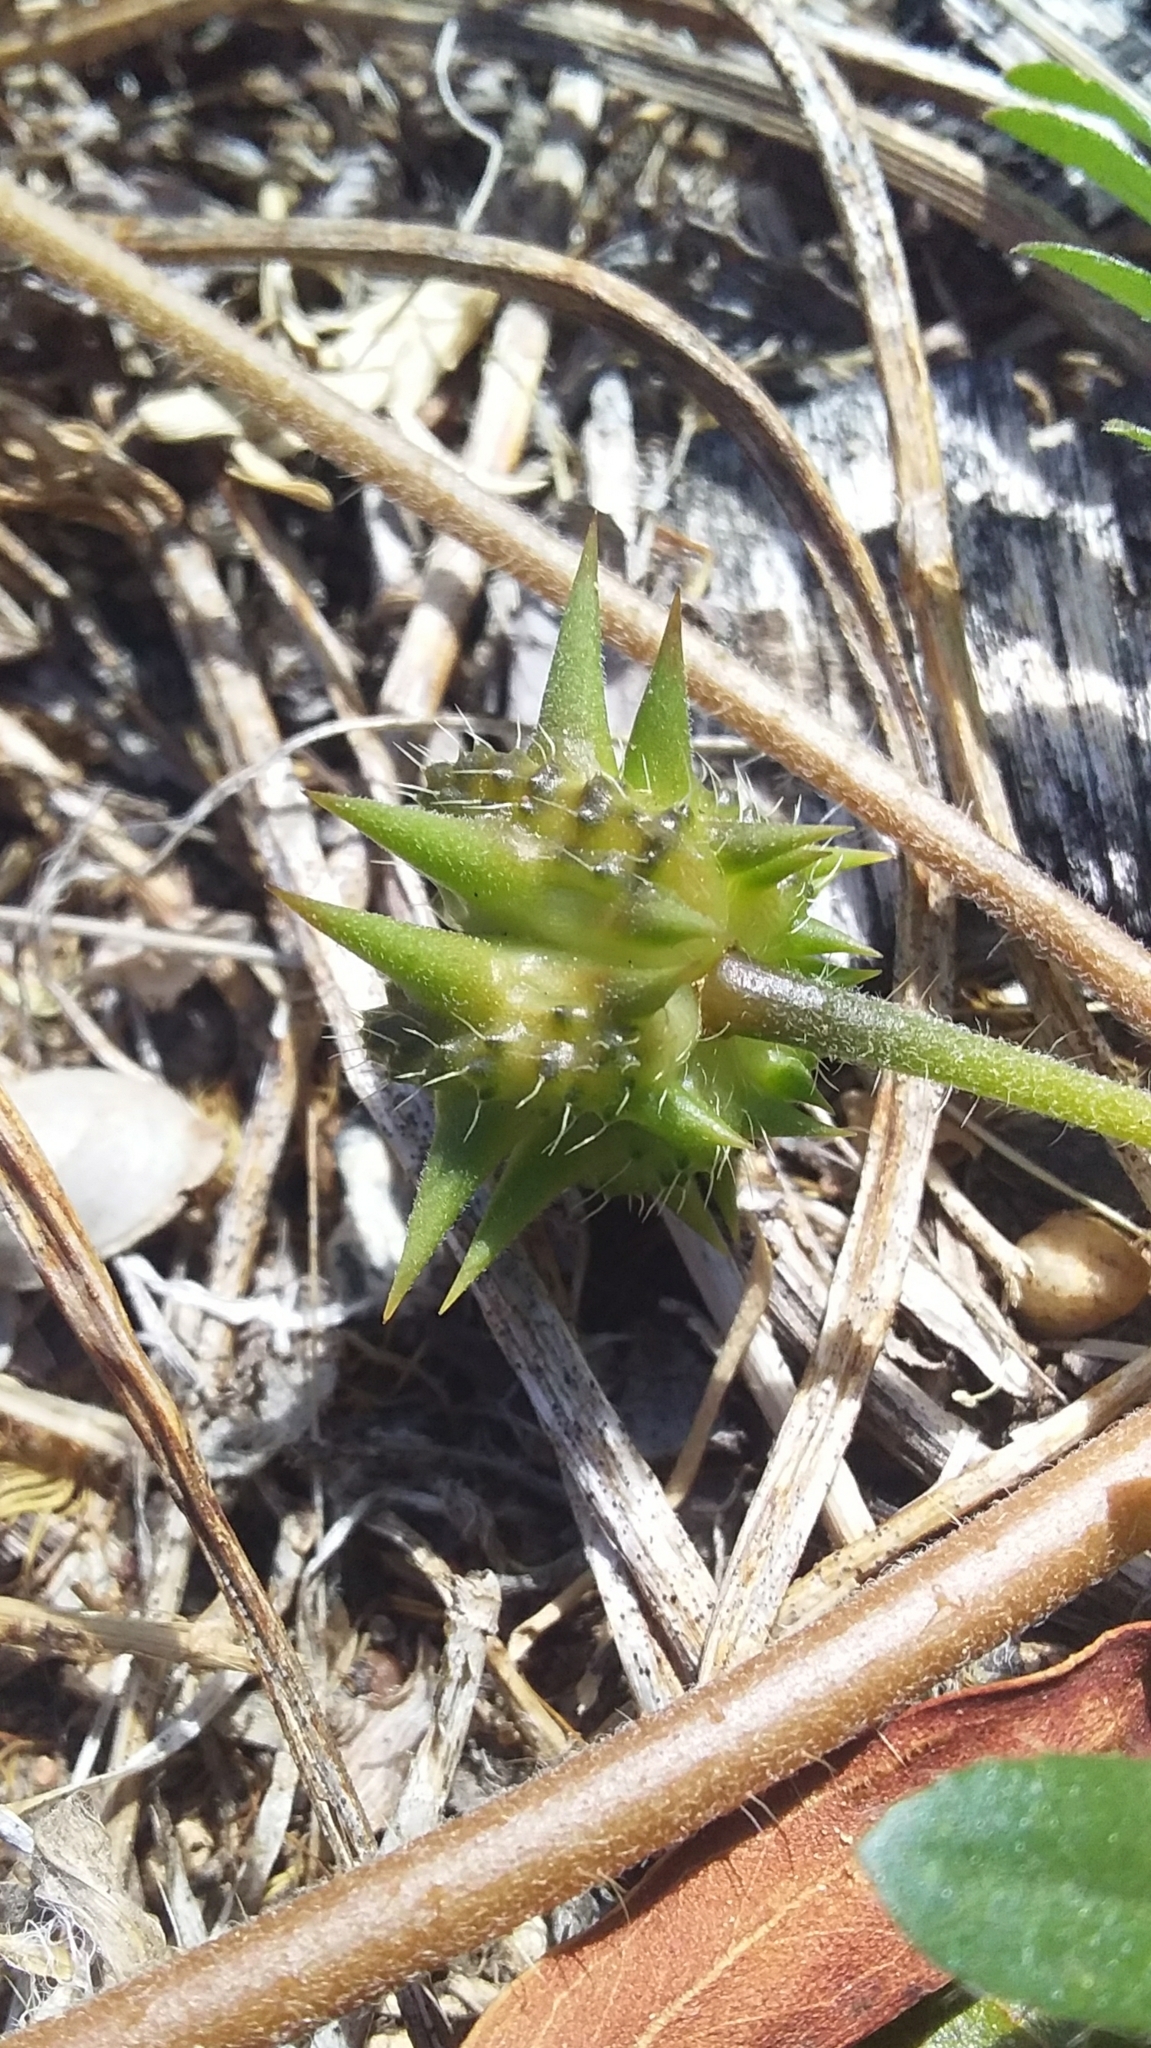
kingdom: Plantae
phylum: Tracheophyta
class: Magnoliopsida
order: Zygophyllales
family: Zygophyllaceae
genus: Tribulus
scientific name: Tribulus terrestris
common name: Puncturevine
